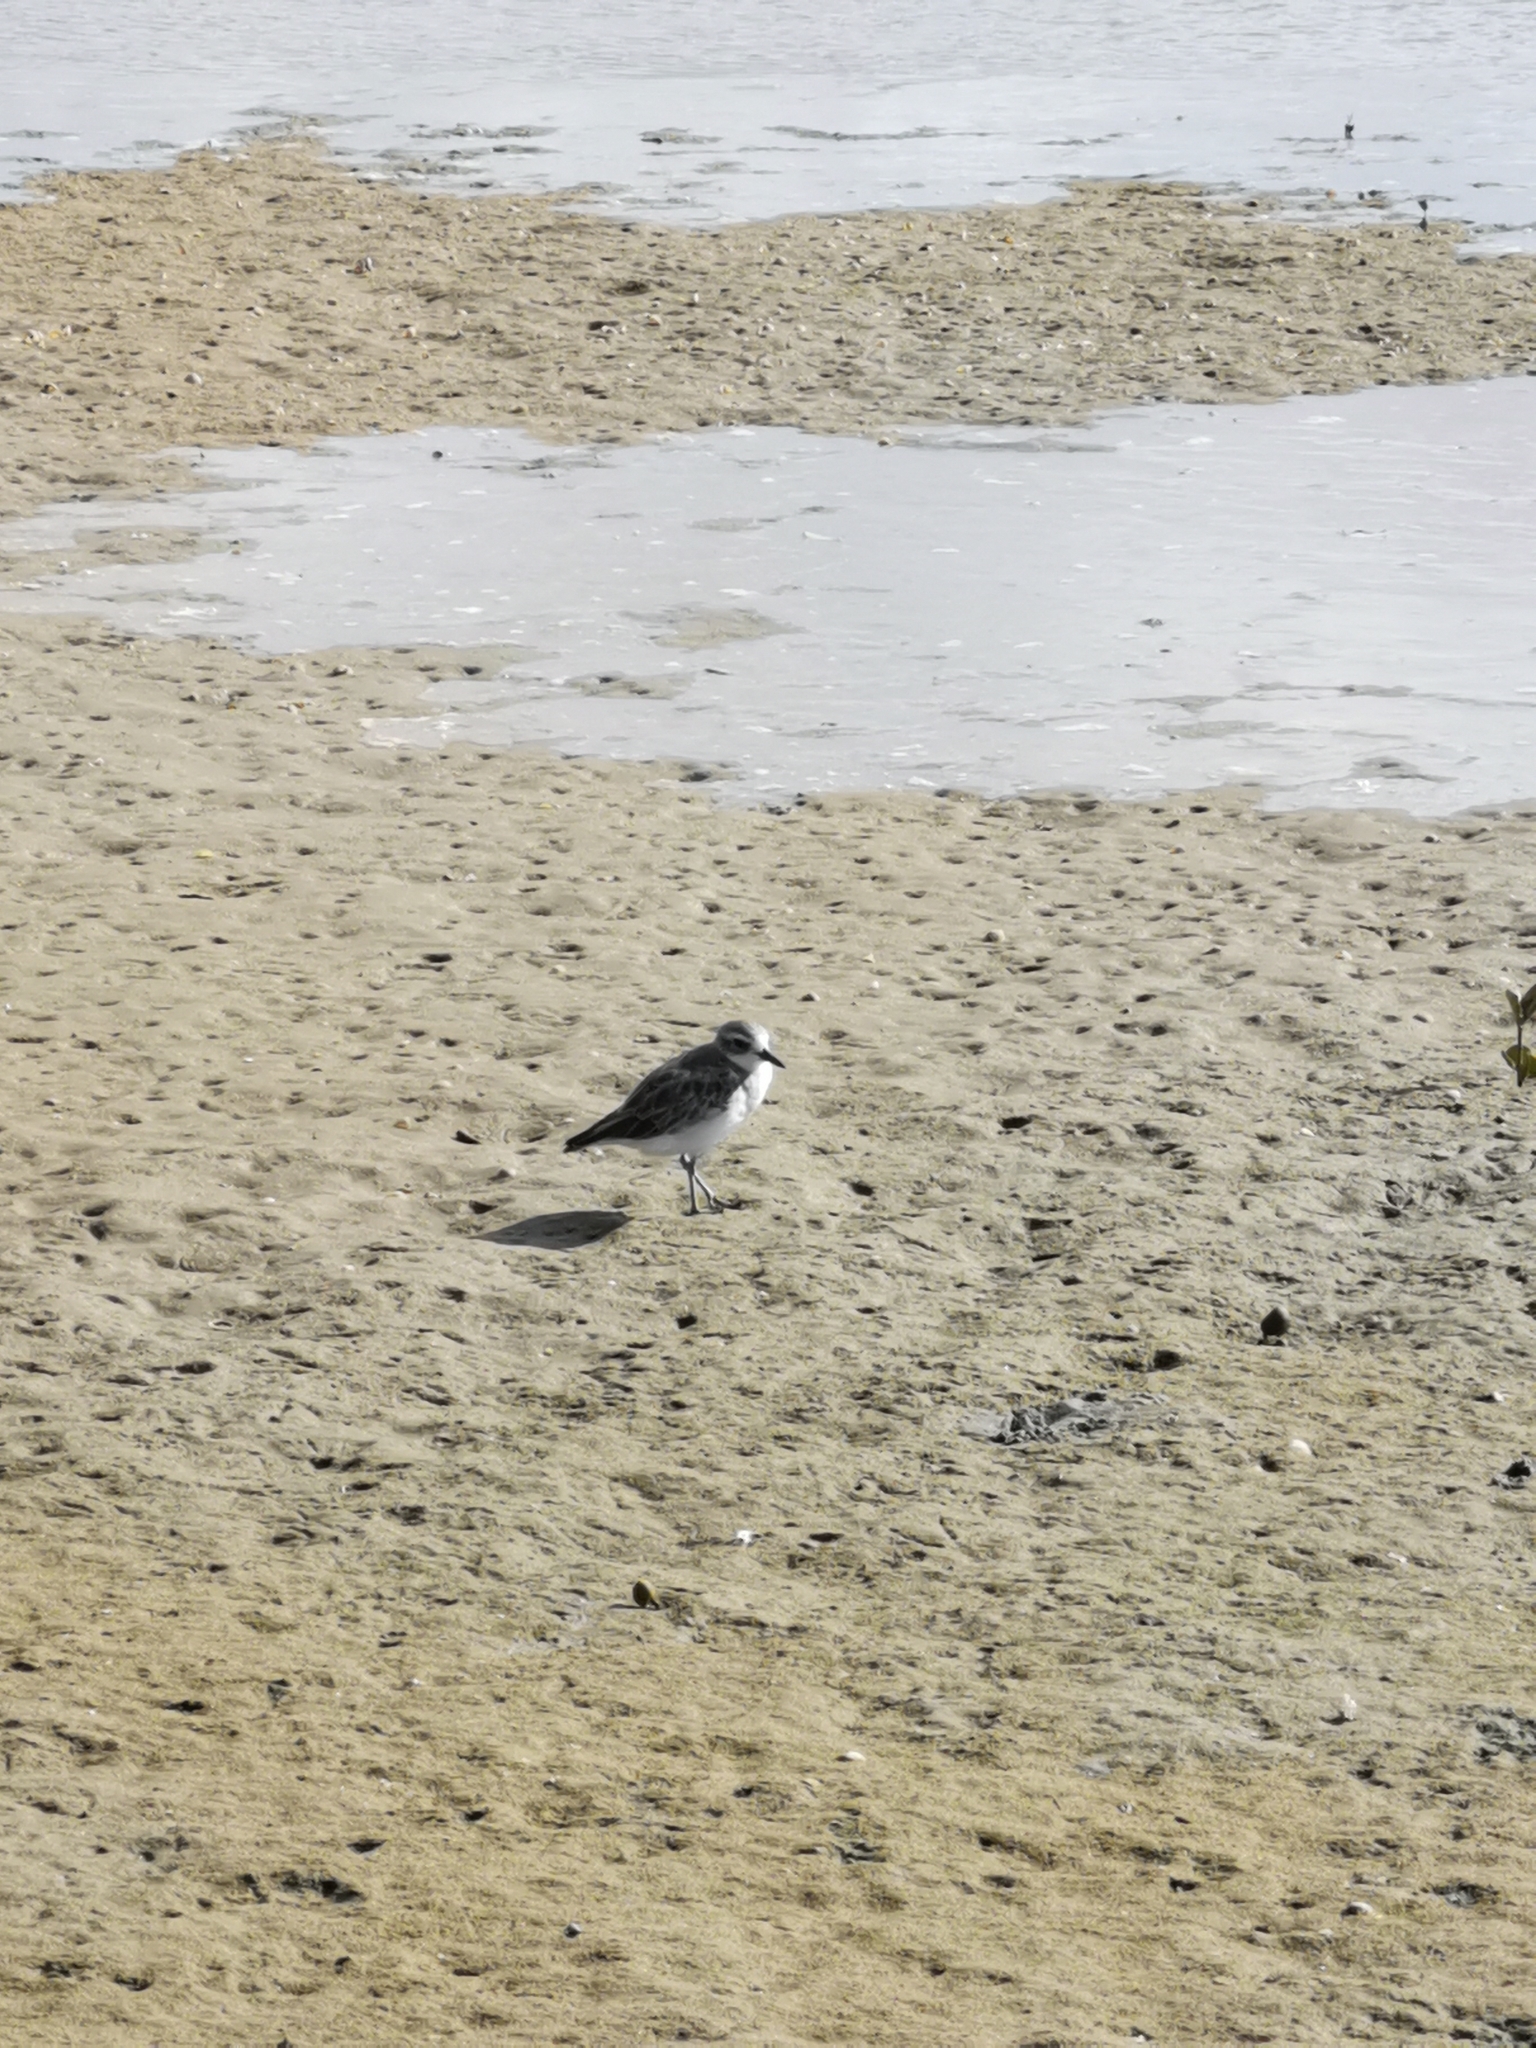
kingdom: Animalia
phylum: Chordata
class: Aves
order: Charadriiformes
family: Charadriidae
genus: Anarhynchus
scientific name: Anarhynchus
